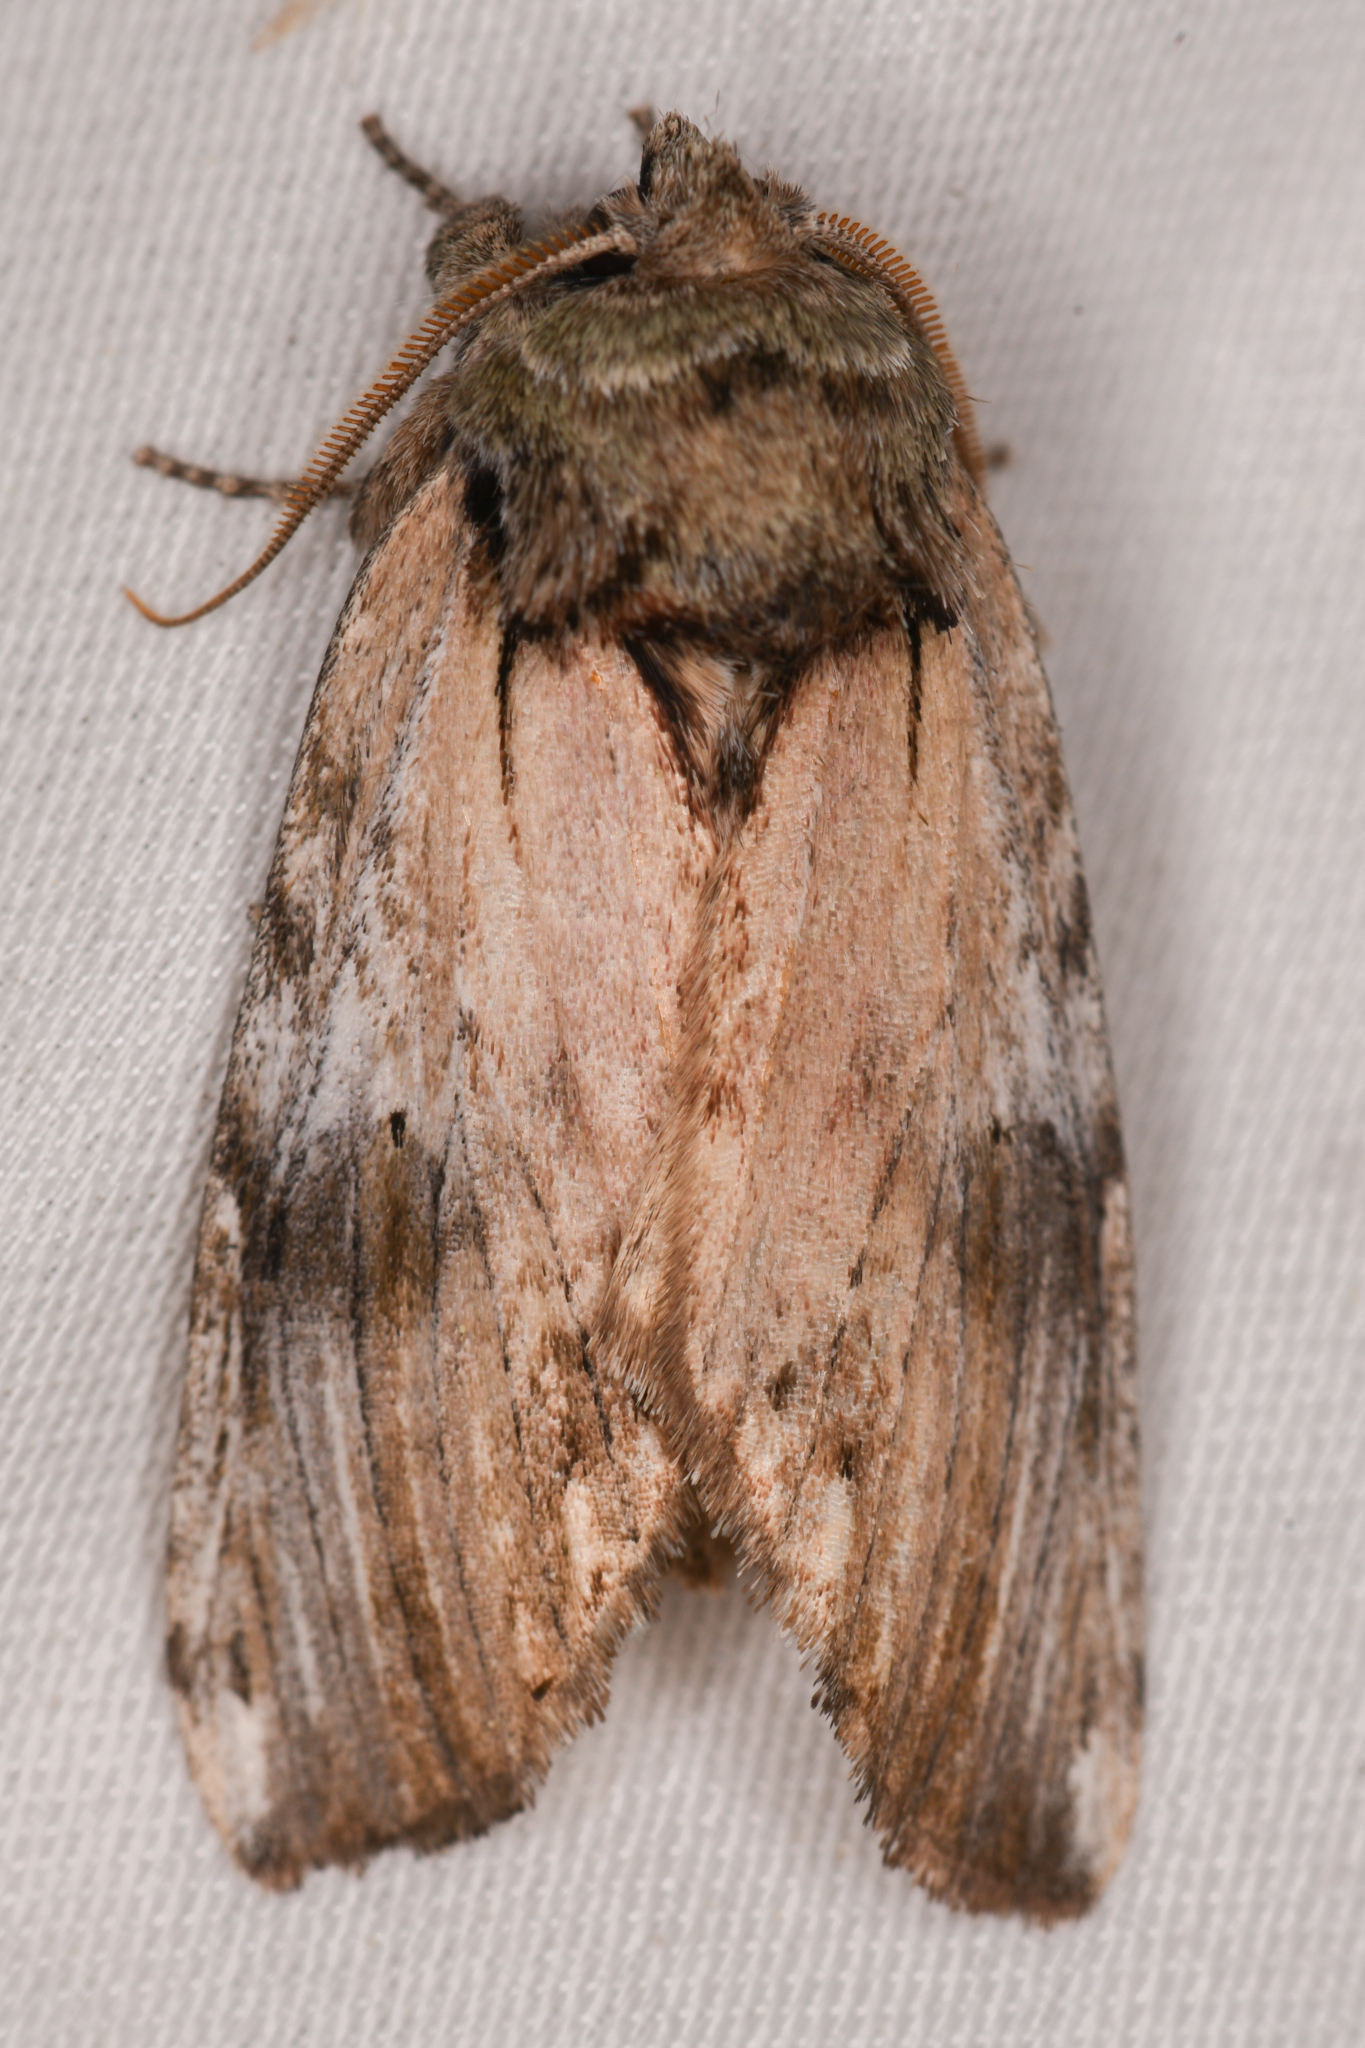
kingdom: Animalia
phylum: Arthropoda
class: Insecta
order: Lepidoptera
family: Notodontidae
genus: Schizura
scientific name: Schizura
